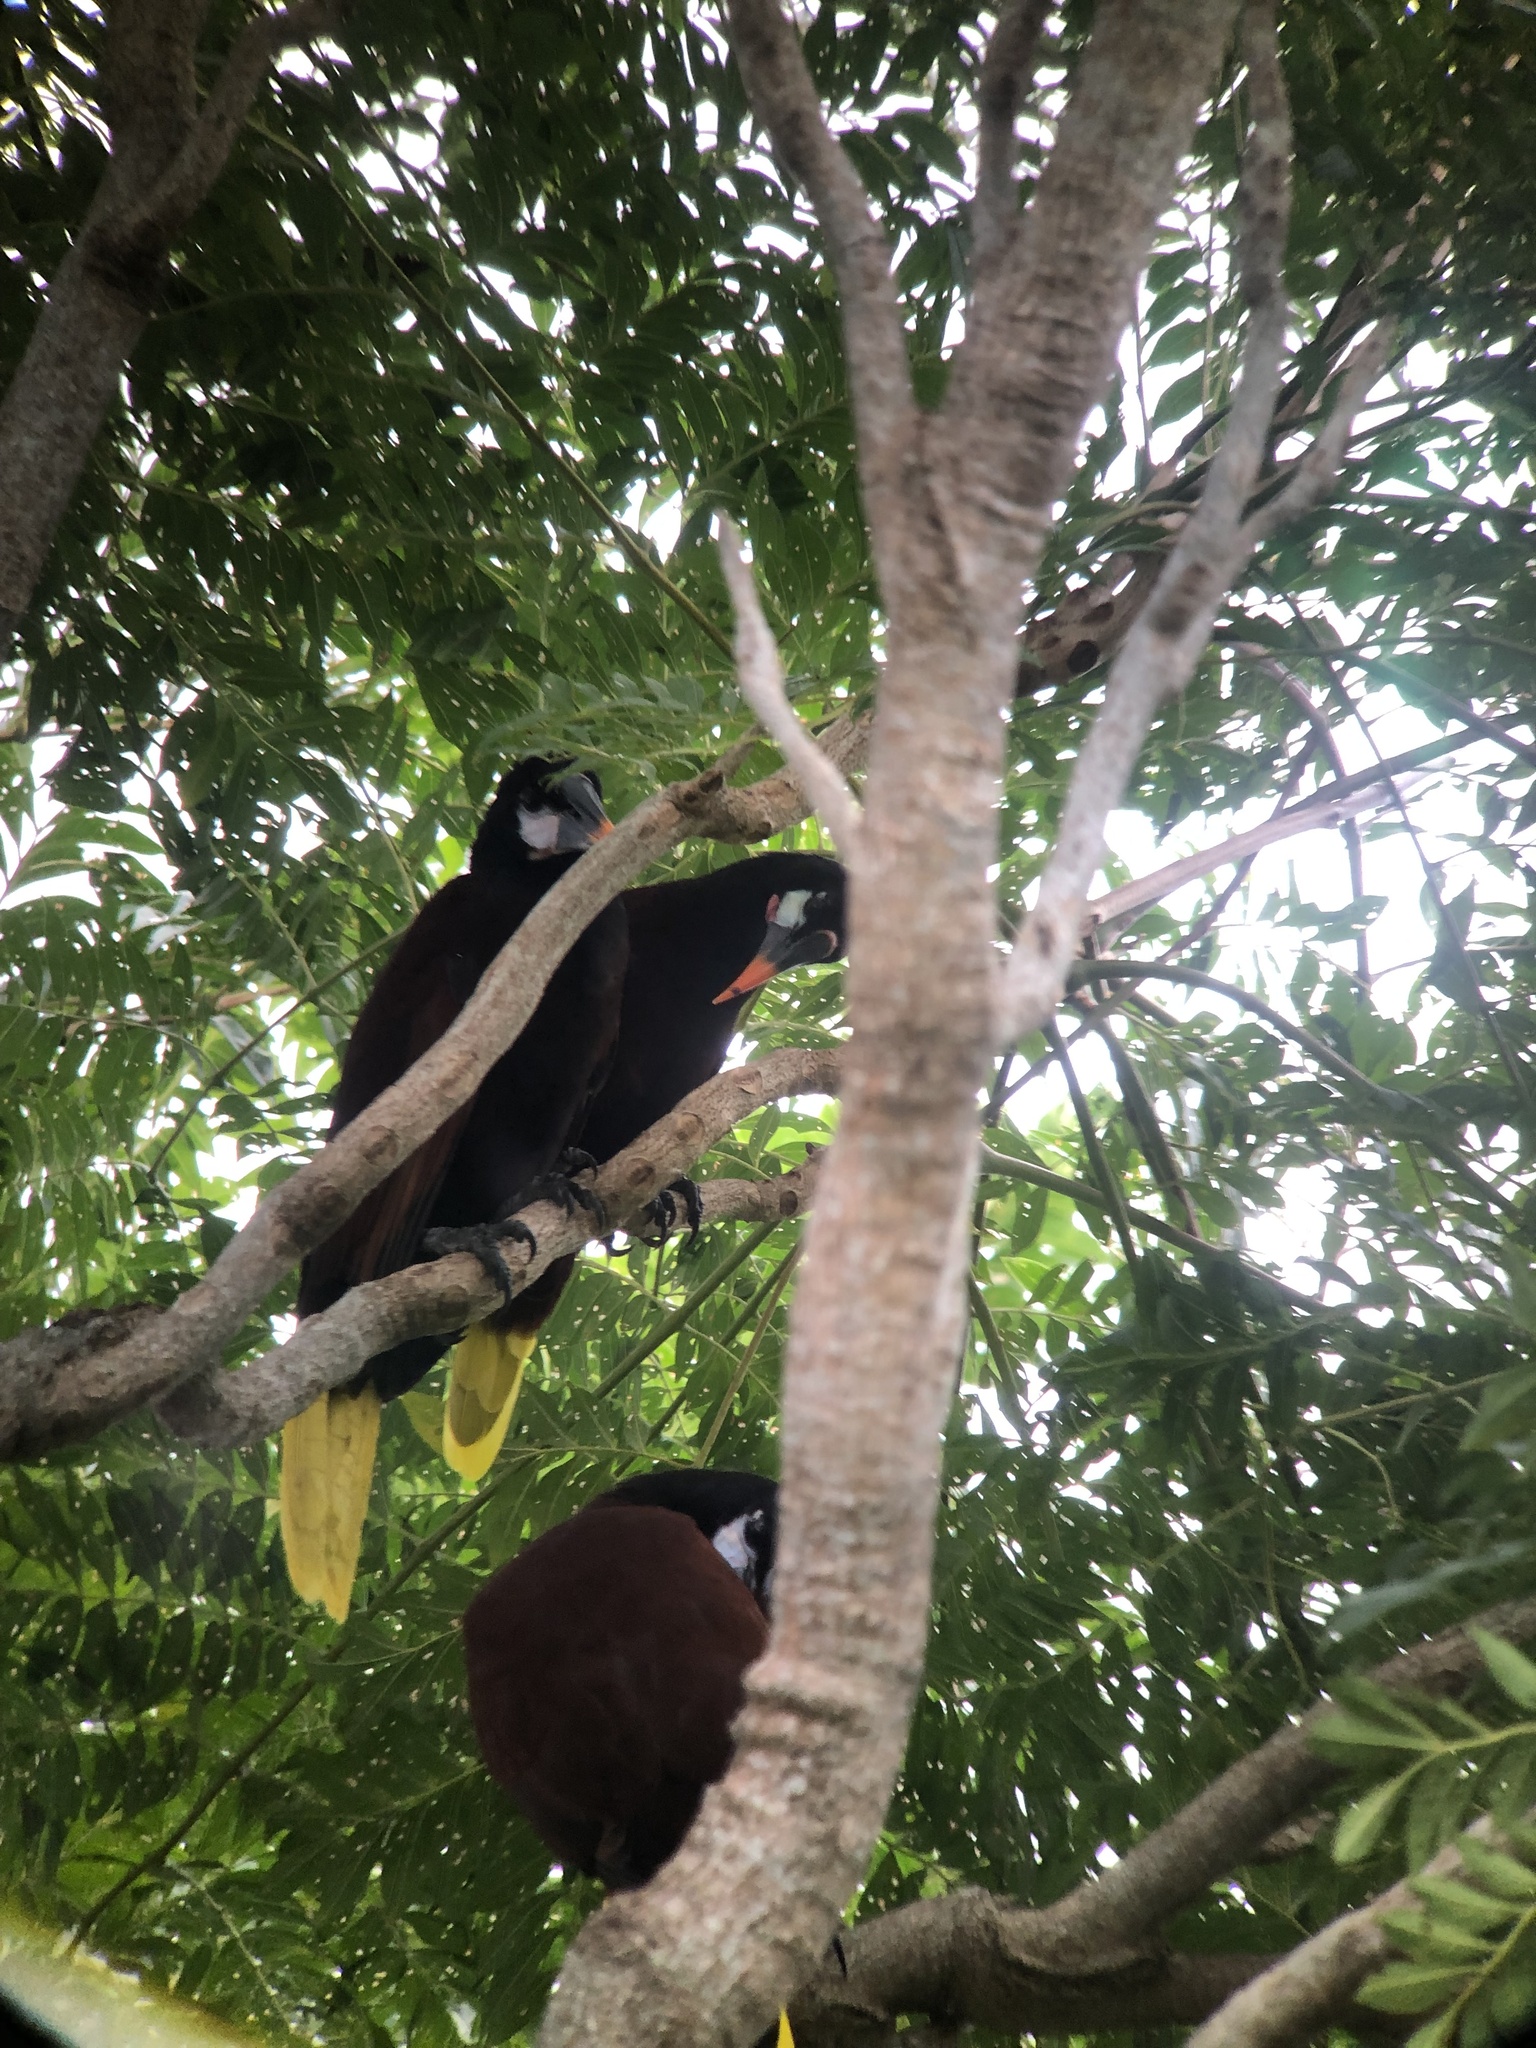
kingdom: Animalia
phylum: Chordata
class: Aves
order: Passeriformes
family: Icteridae
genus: Psarocolius
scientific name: Psarocolius montezuma
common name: Montezuma oropendola
